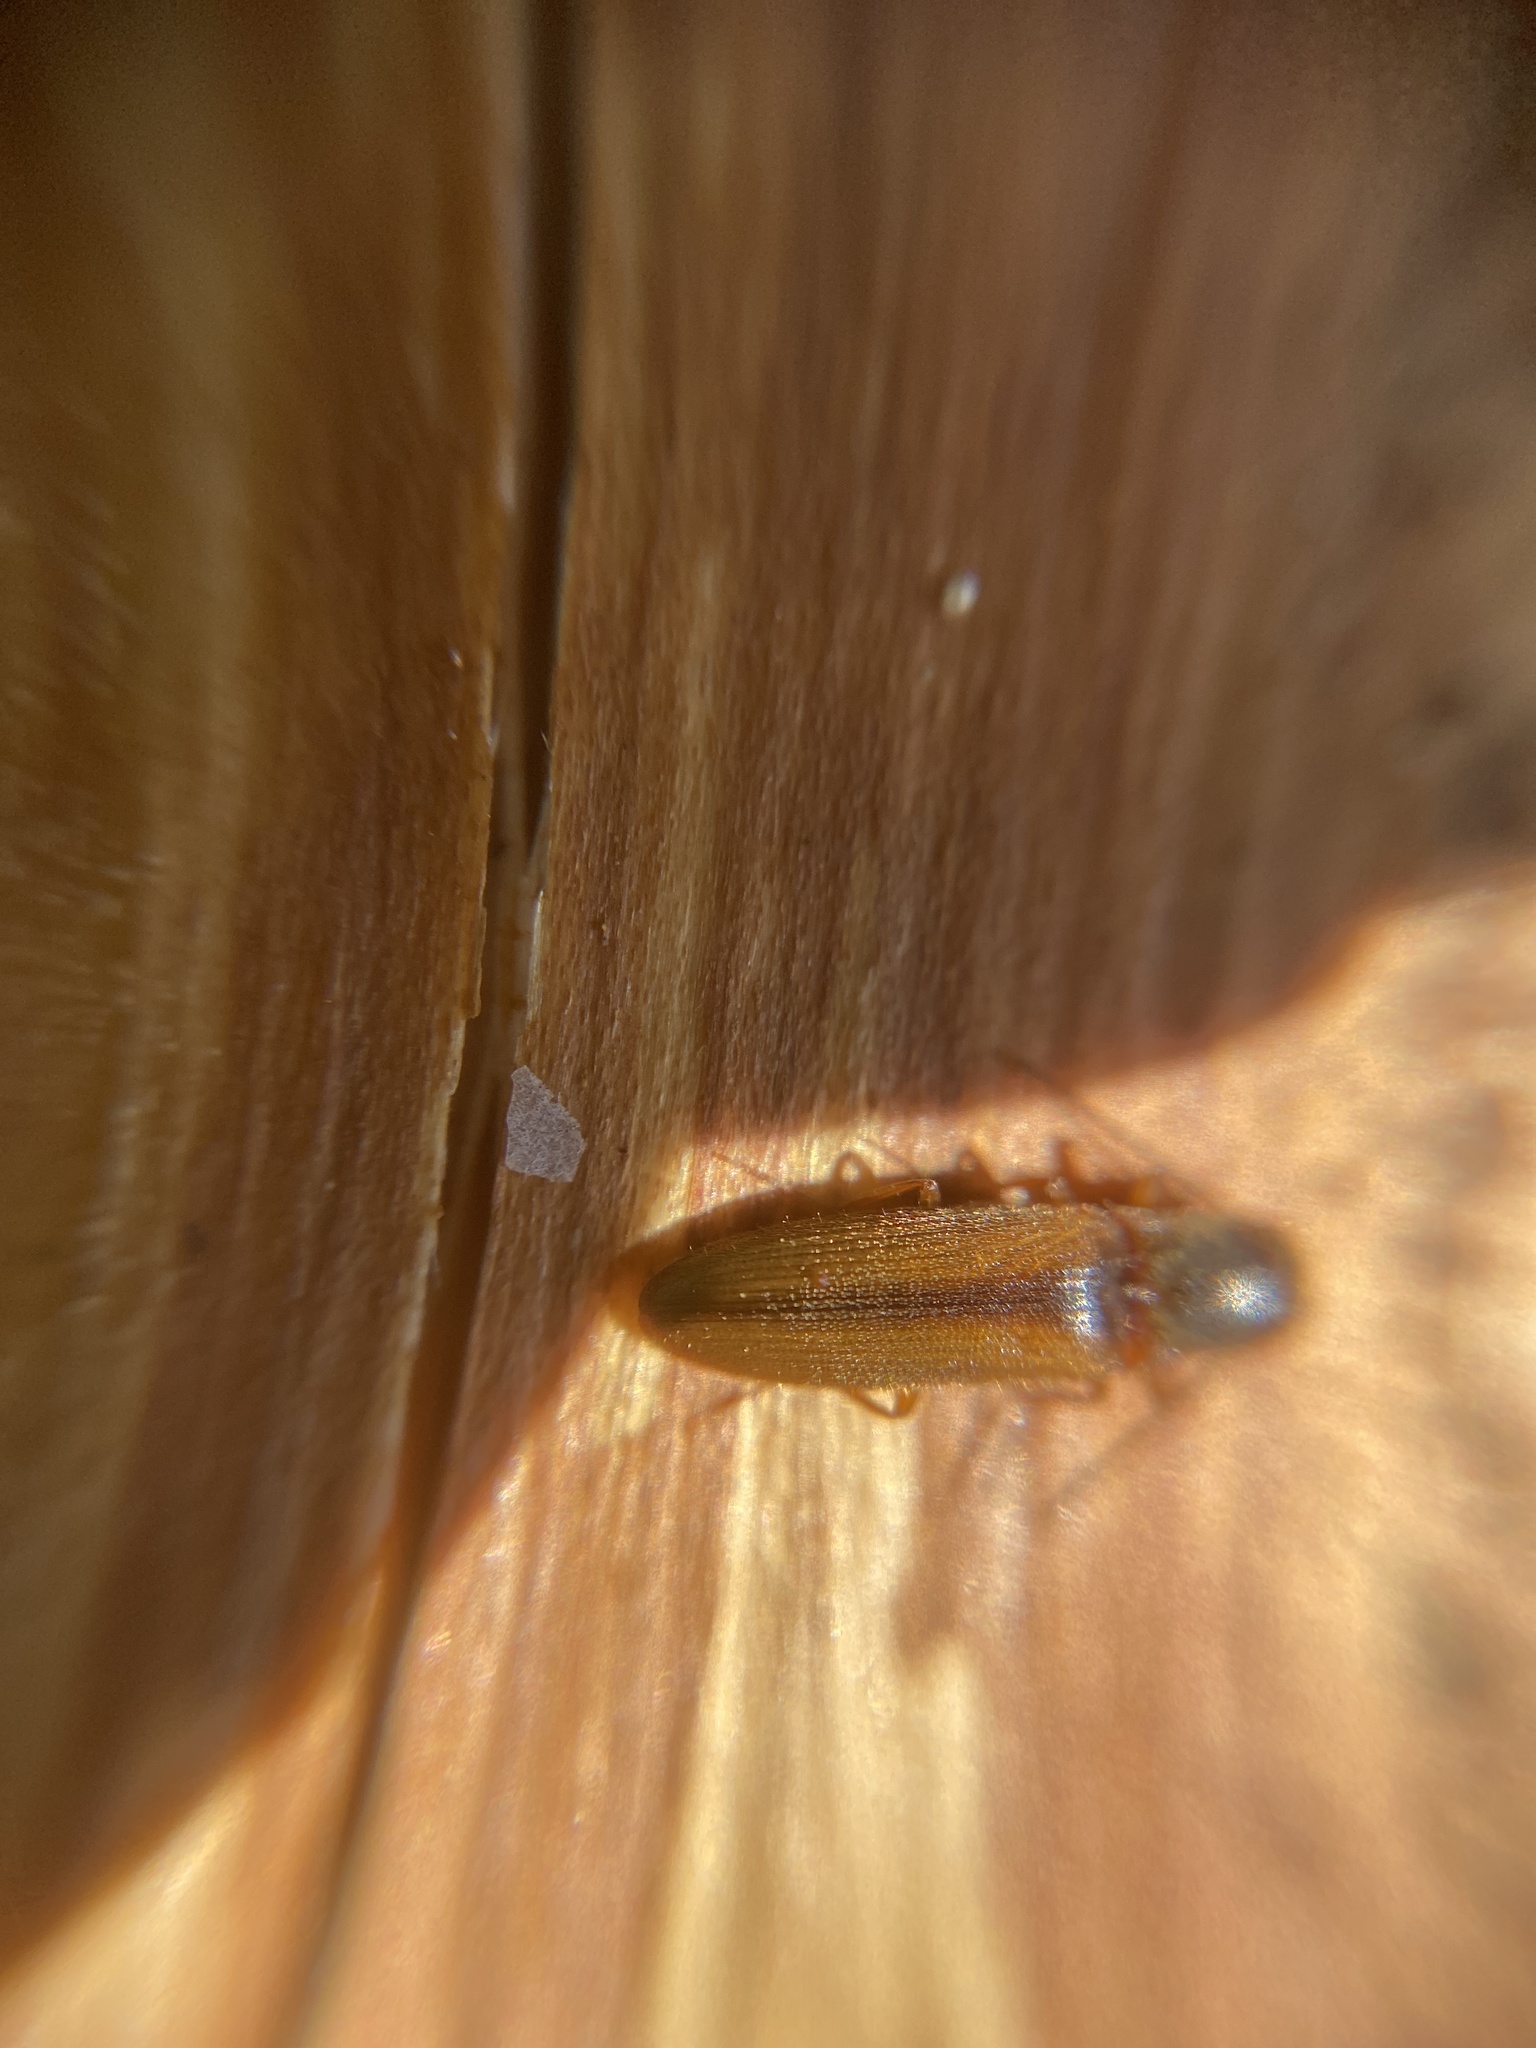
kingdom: Animalia
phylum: Arthropoda
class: Insecta
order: Coleoptera
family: Elateridae
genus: Dalopius
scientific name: Dalopius marginatus
